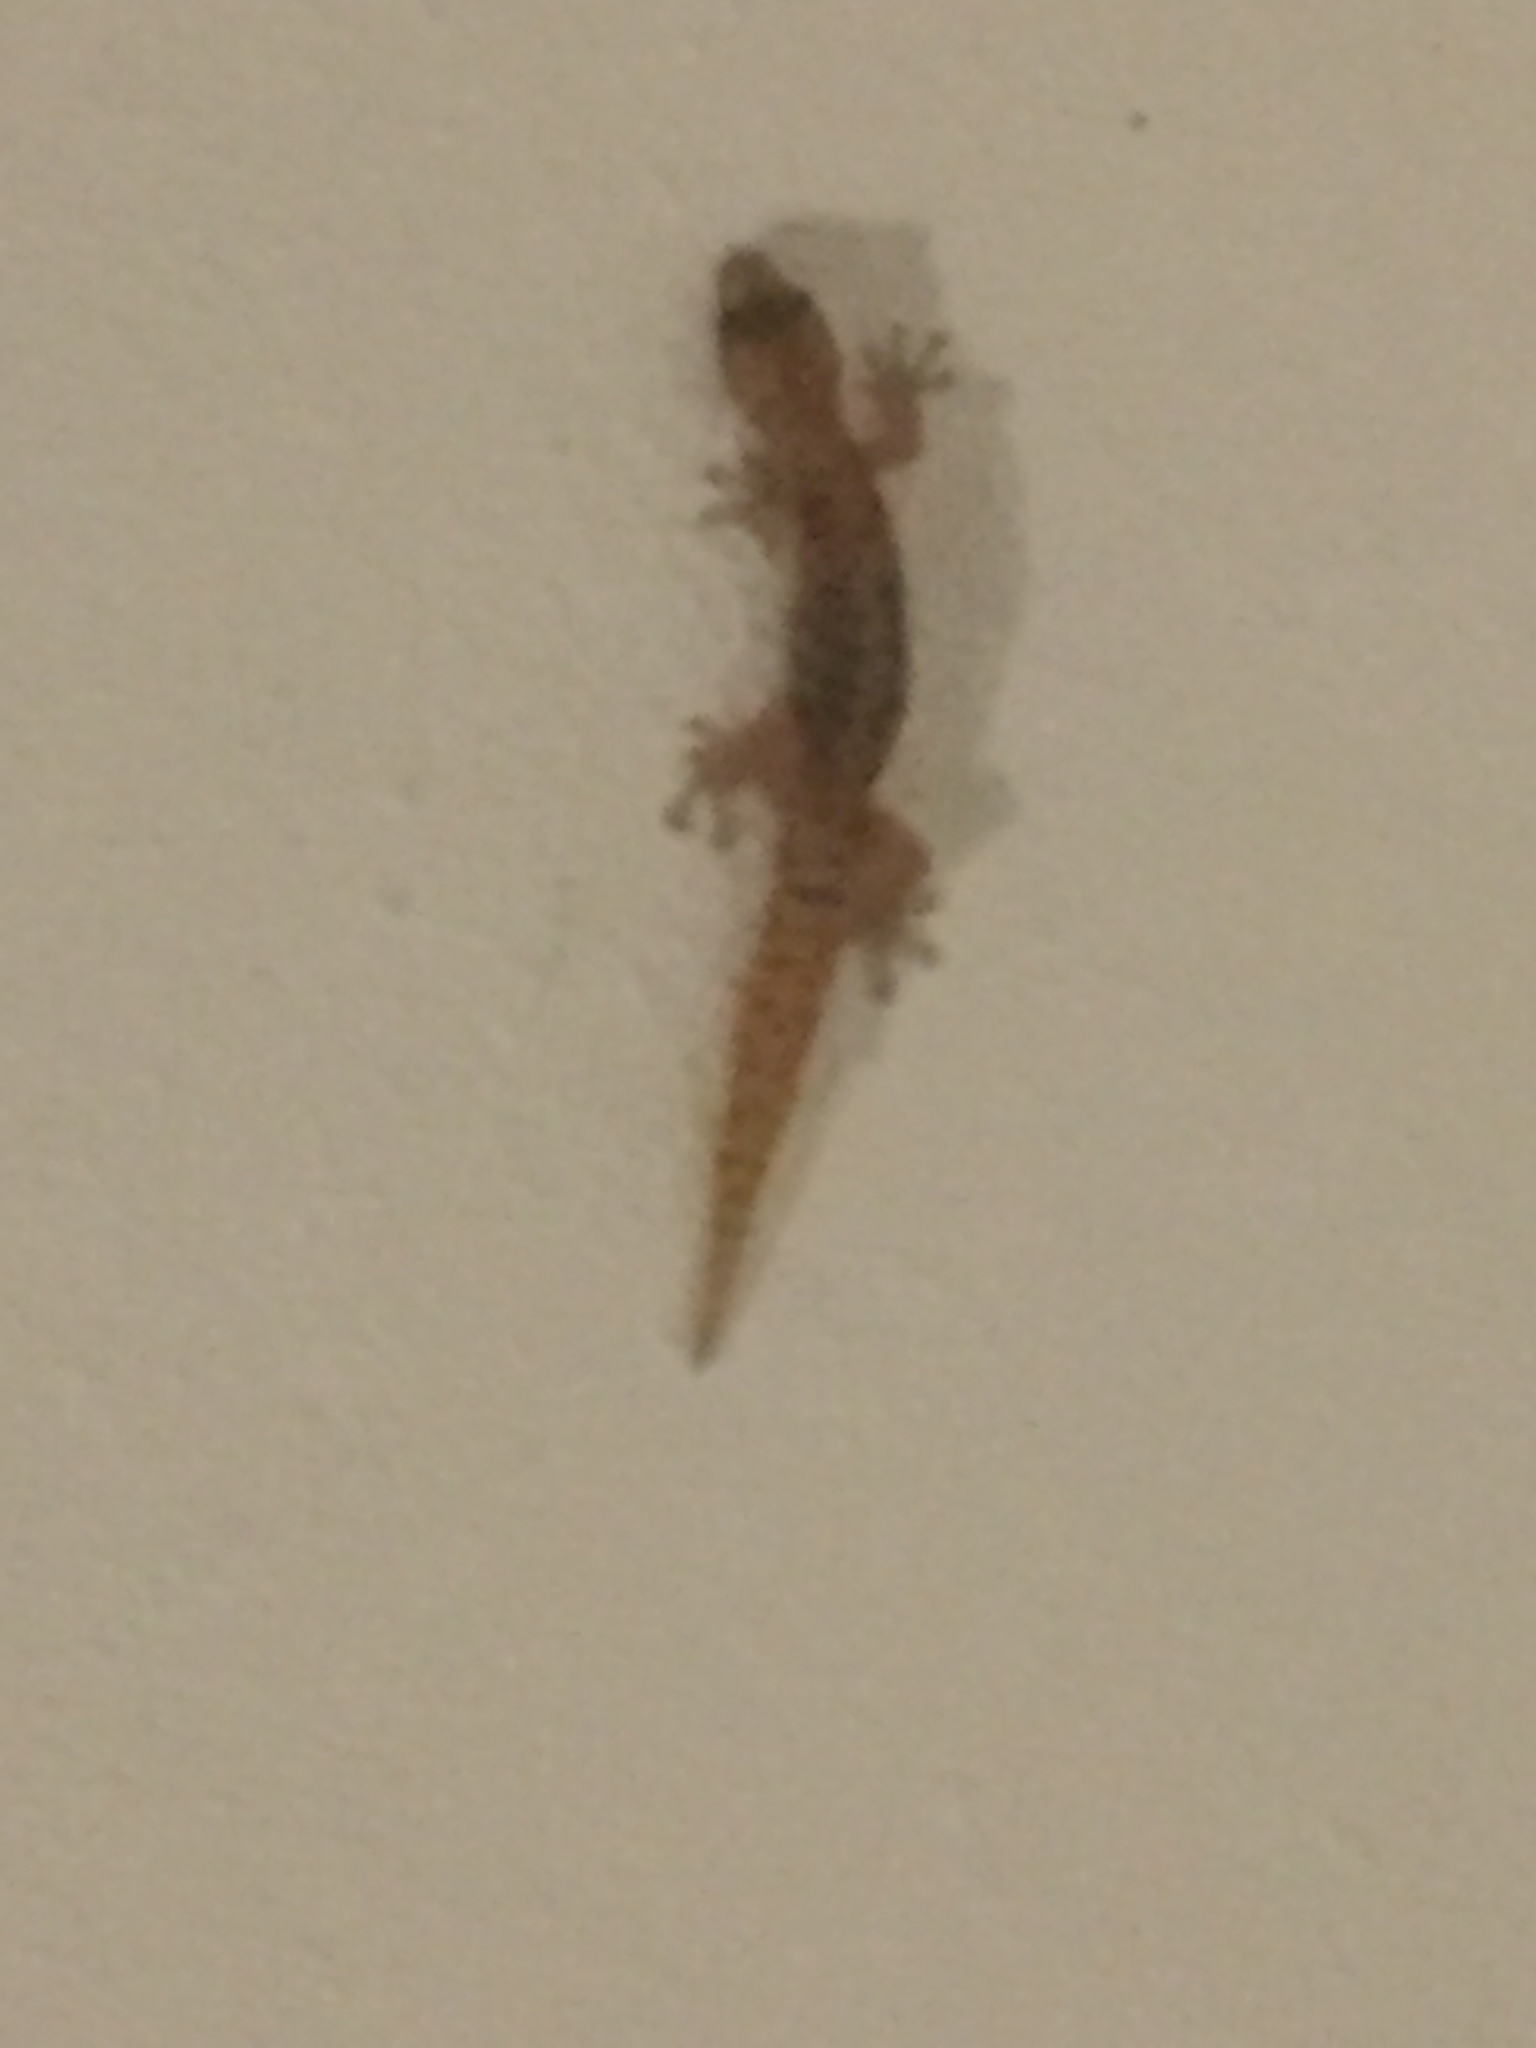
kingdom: Animalia
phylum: Chordata
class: Squamata
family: Gekkonidae
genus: Afrogecko
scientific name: Afrogecko porphyreus
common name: Marbled leaf-toed gecko
